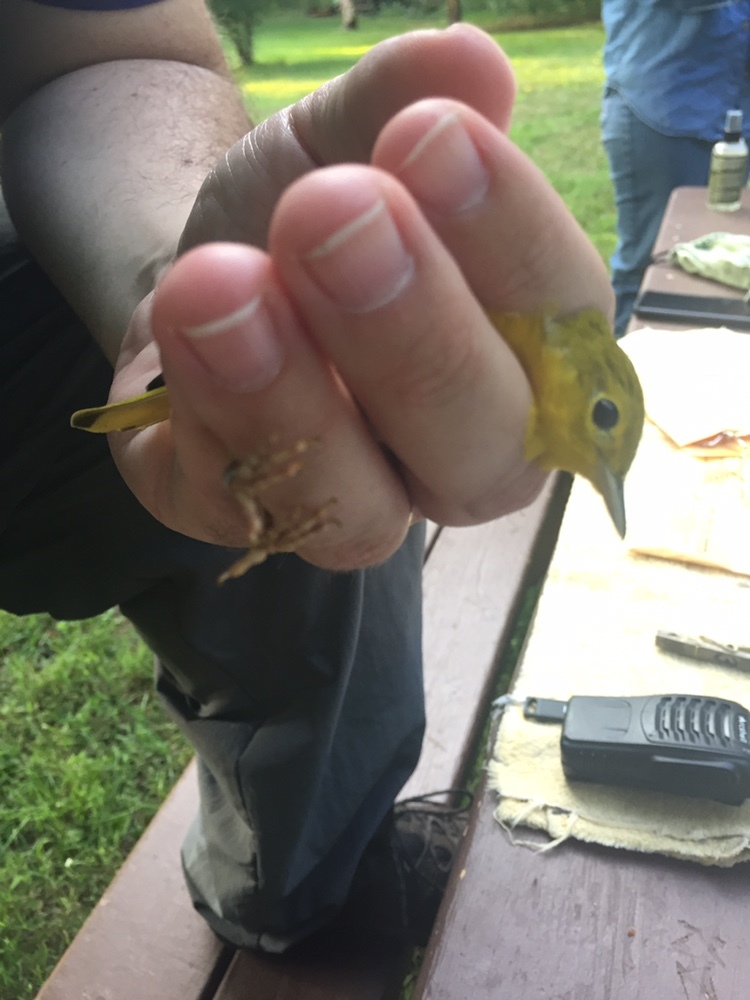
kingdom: Animalia
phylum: Chordata
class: Aves
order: Passeriformes
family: Parulidae
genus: Setophaga
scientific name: Setophaga petechia
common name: Yellow warbler
